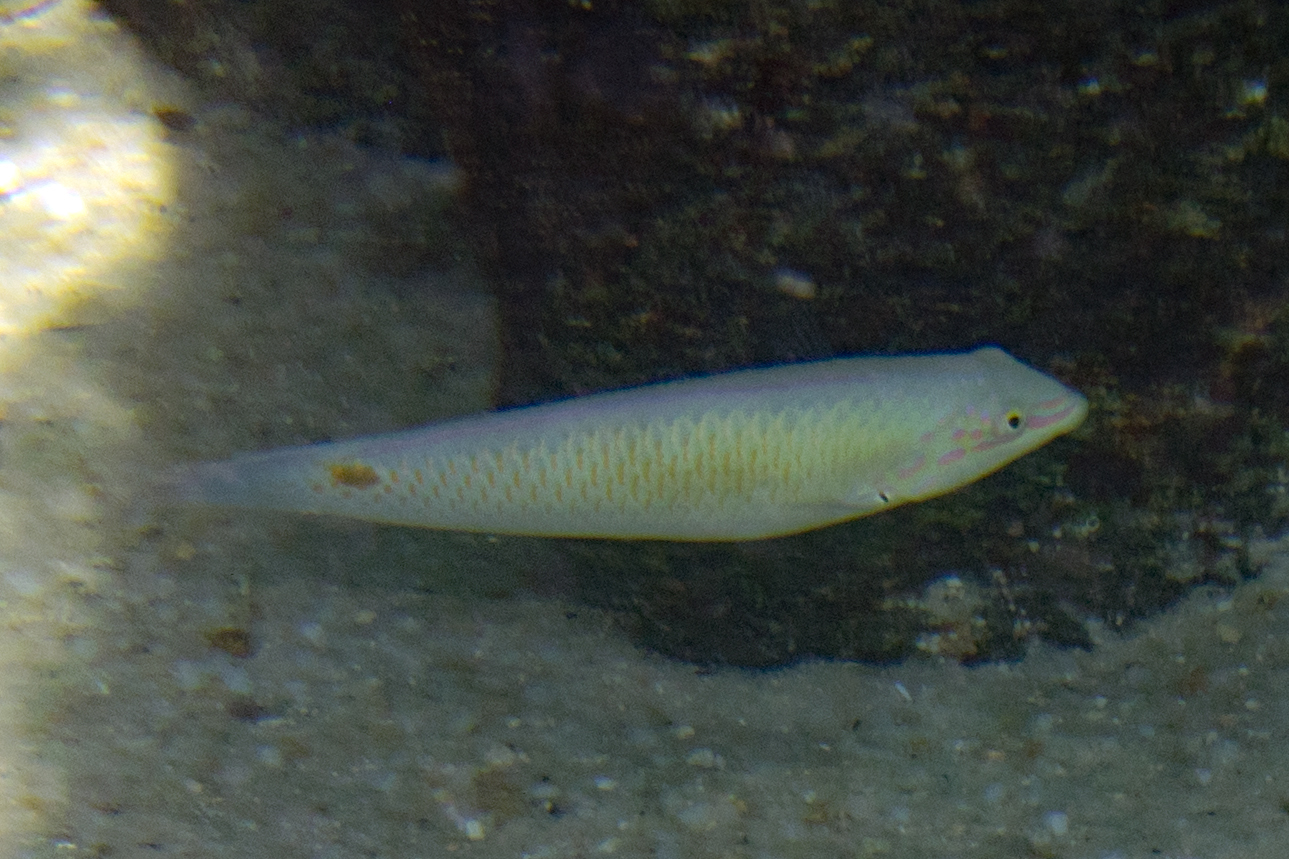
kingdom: Animalia
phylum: Chordata
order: Perciformes
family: Labridae
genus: Halichoeres
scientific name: Halichoeres trimaculatus
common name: Three-spot wrasse
